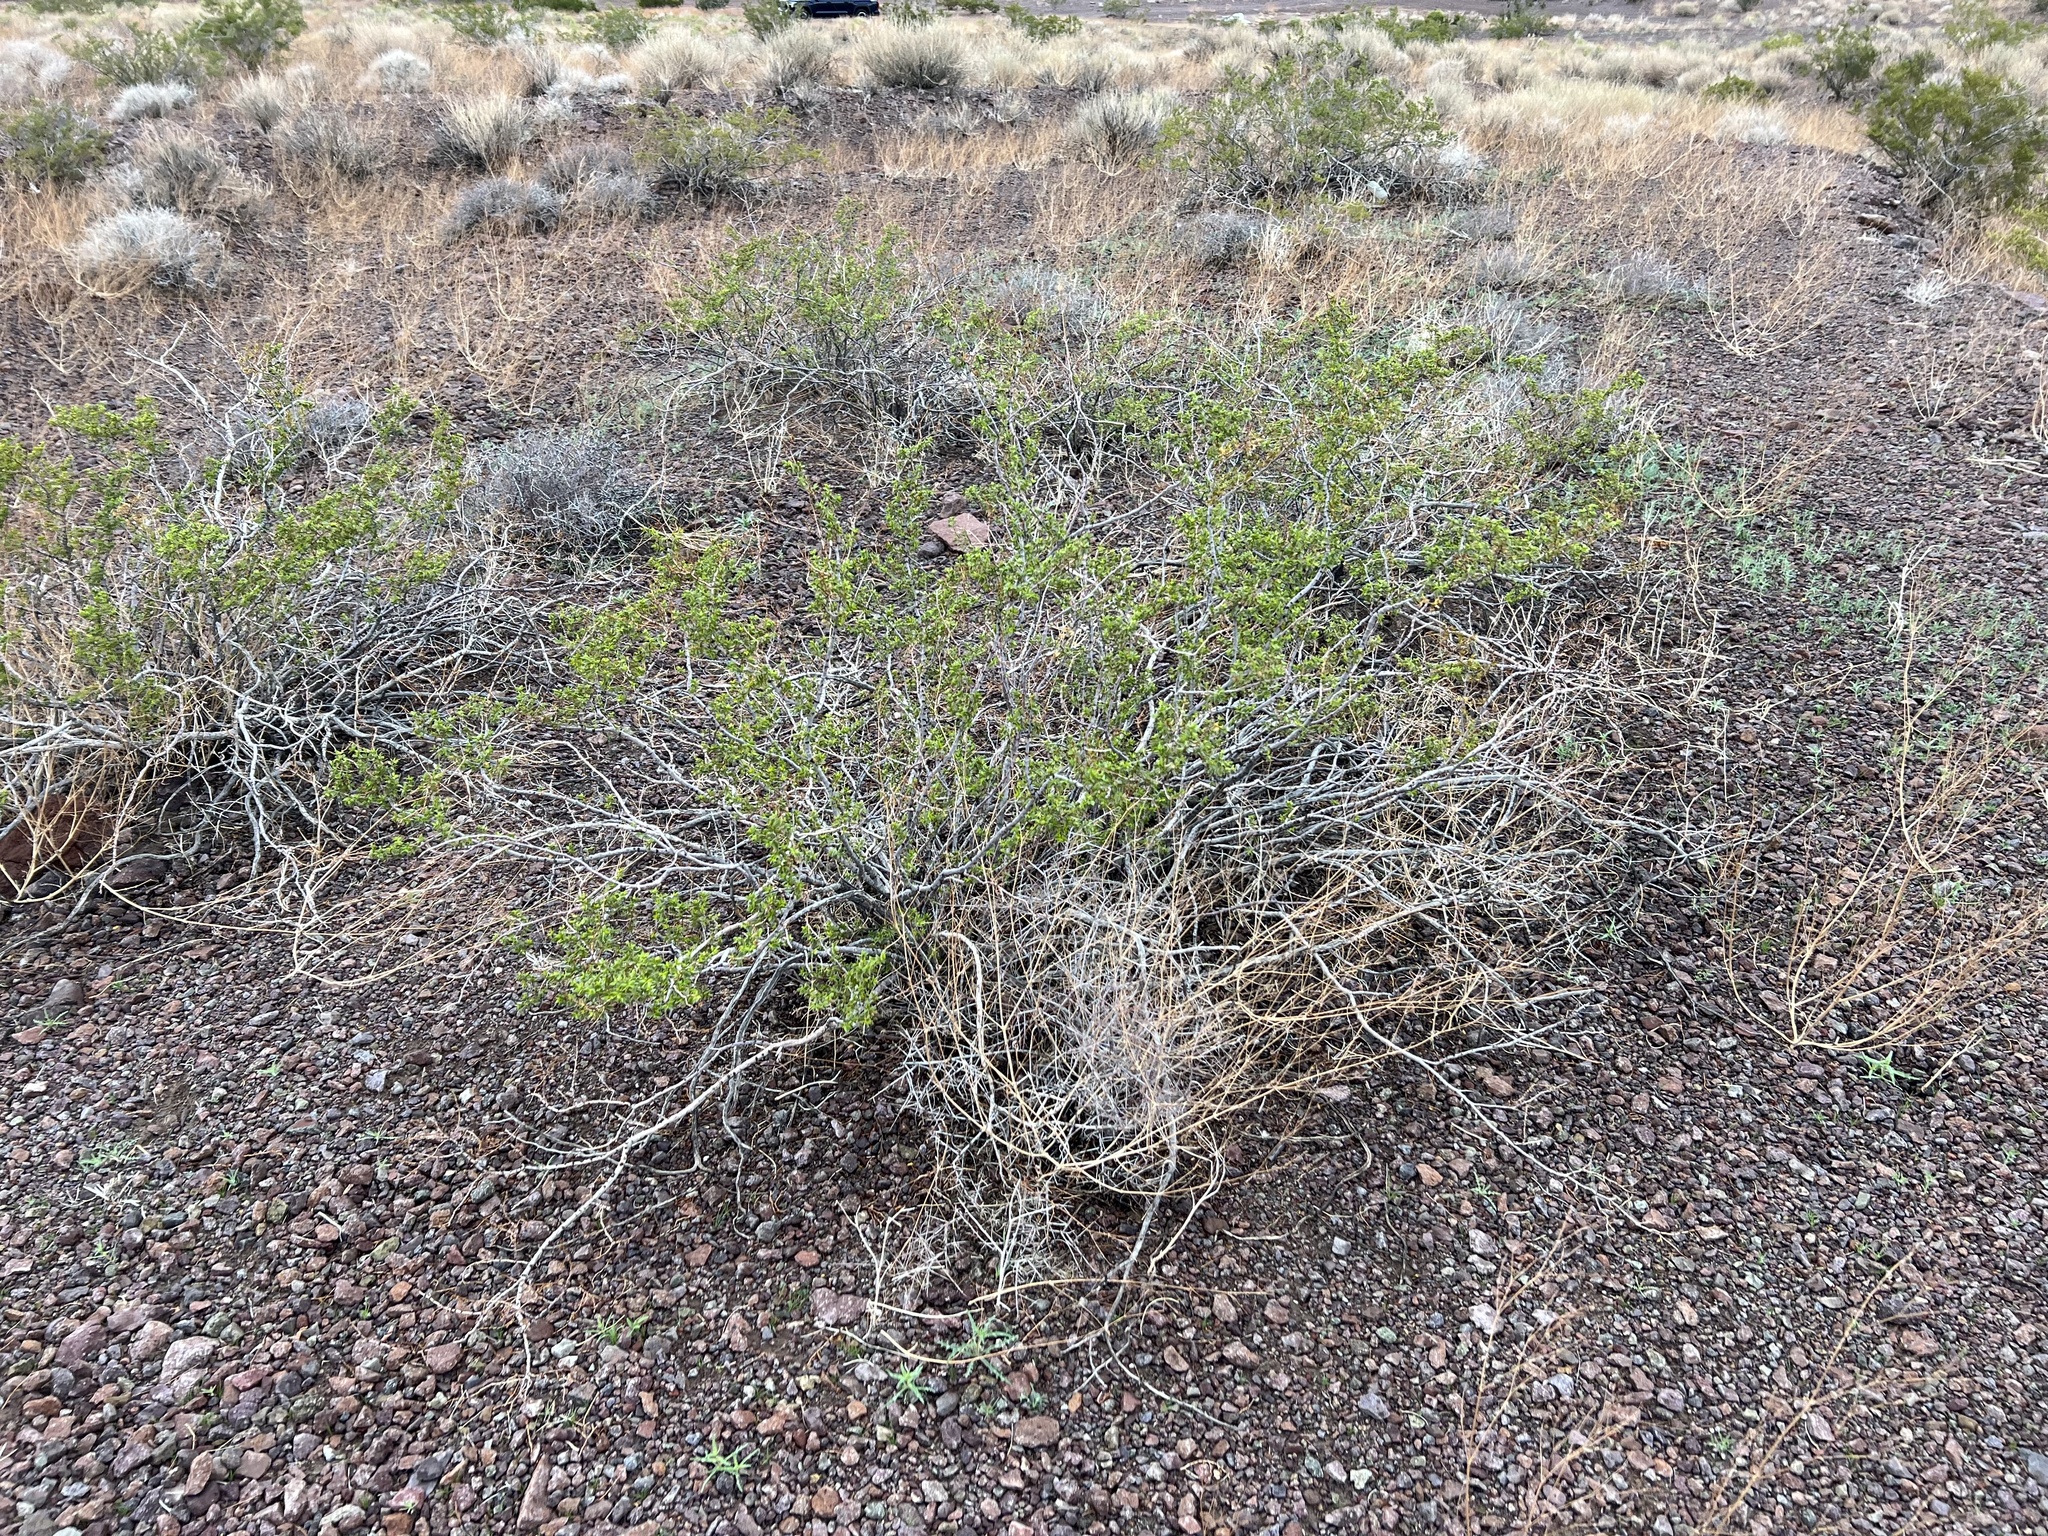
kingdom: Plantae
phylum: Tracheophyta
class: Magnoliopsida
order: Zygophyllales
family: Zygophyllaceae
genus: Larrea
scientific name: Larrea tridentata
